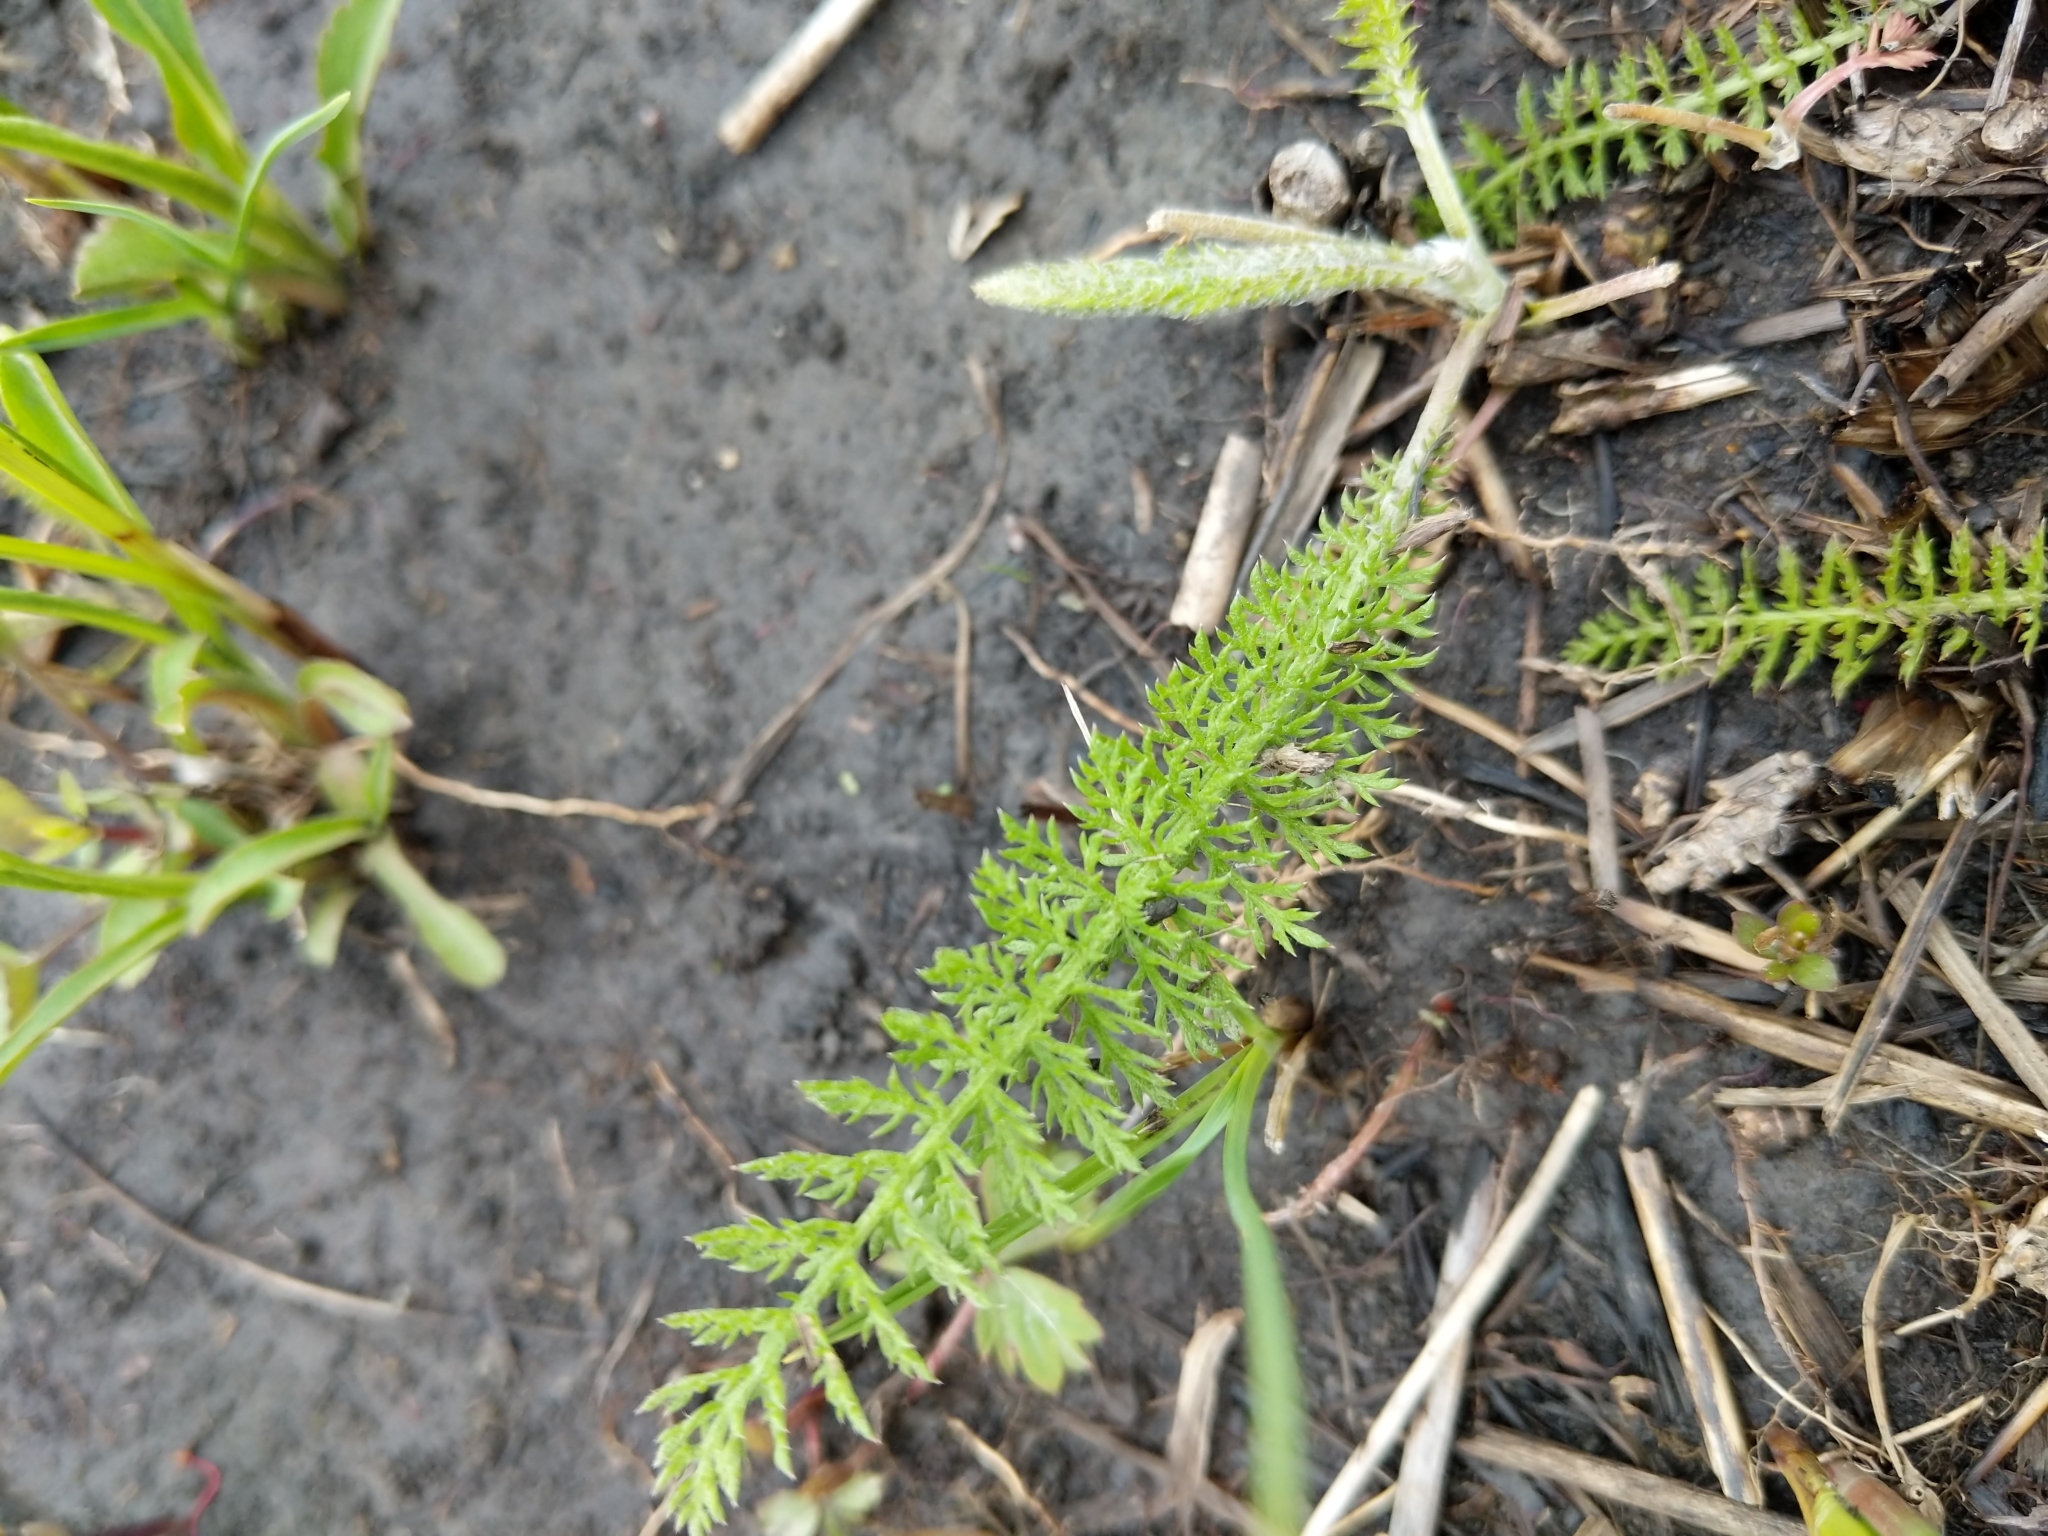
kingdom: Plantae
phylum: Tracheophyta
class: Magnoliopsida
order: Asterales
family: Asteraceae
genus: Achillea
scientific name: Achillea millefolium
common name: Yarrow
